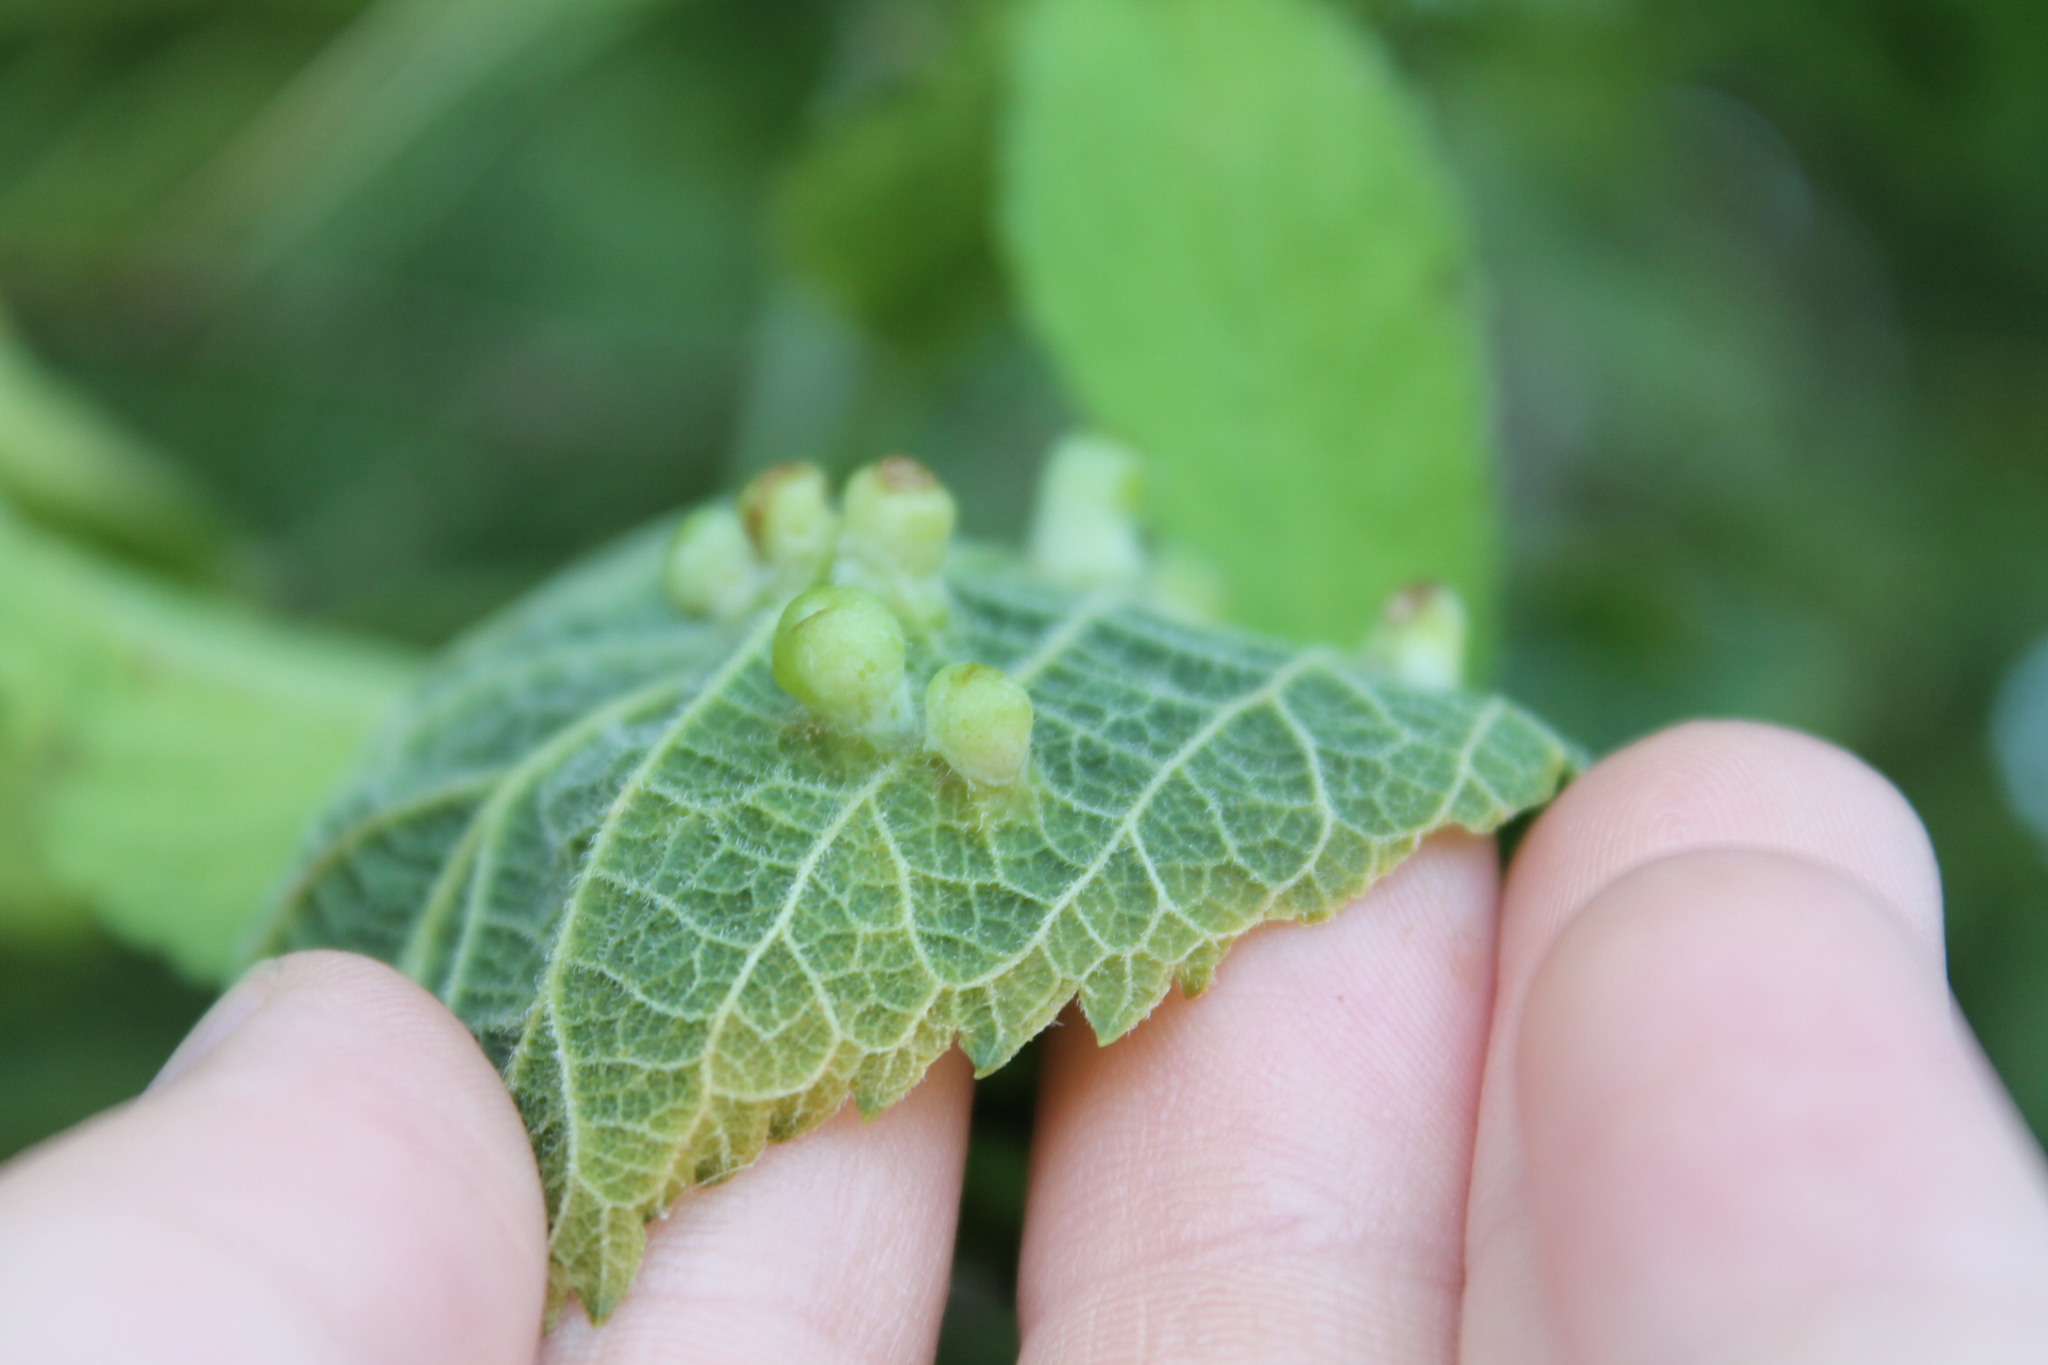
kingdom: Animalia
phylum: Arthropoda
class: Insecta
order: Hemiptera
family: Aphalaridae
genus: Pachypsylla
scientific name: Pachypsylla celtidismamma
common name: Hackberry nipplegall psyllid
